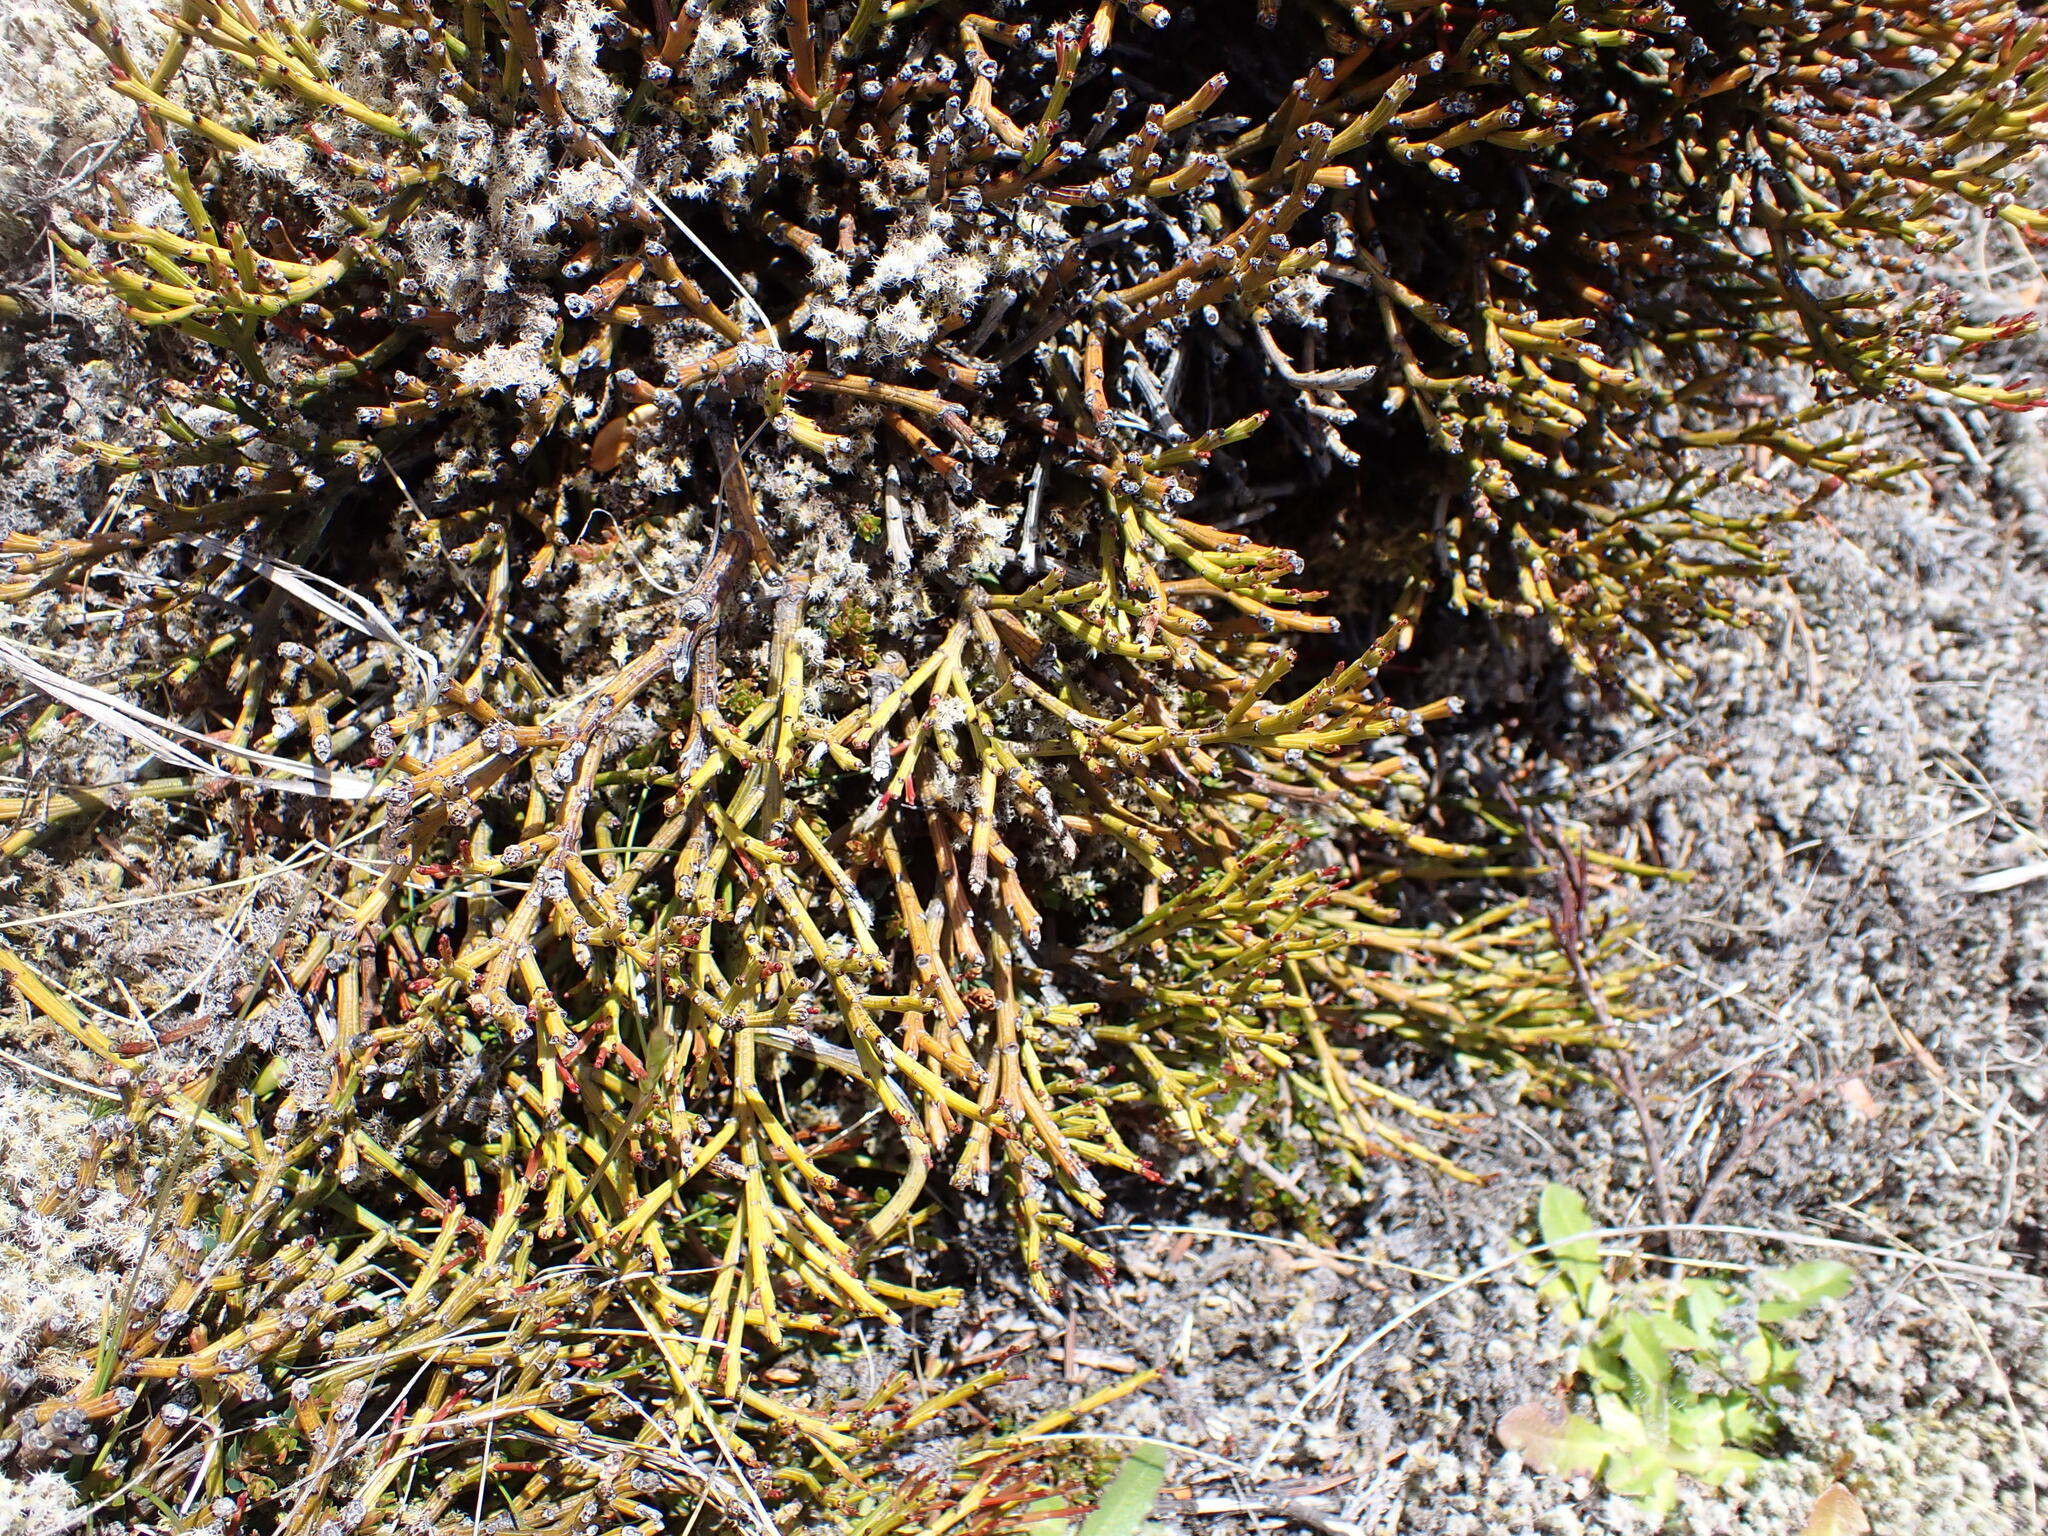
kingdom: Plantae
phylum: Tracheophyta
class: Magnoliopsida
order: Santalales
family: Santalaceae
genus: Exocarpos
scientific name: Exocarpos bidwillii
